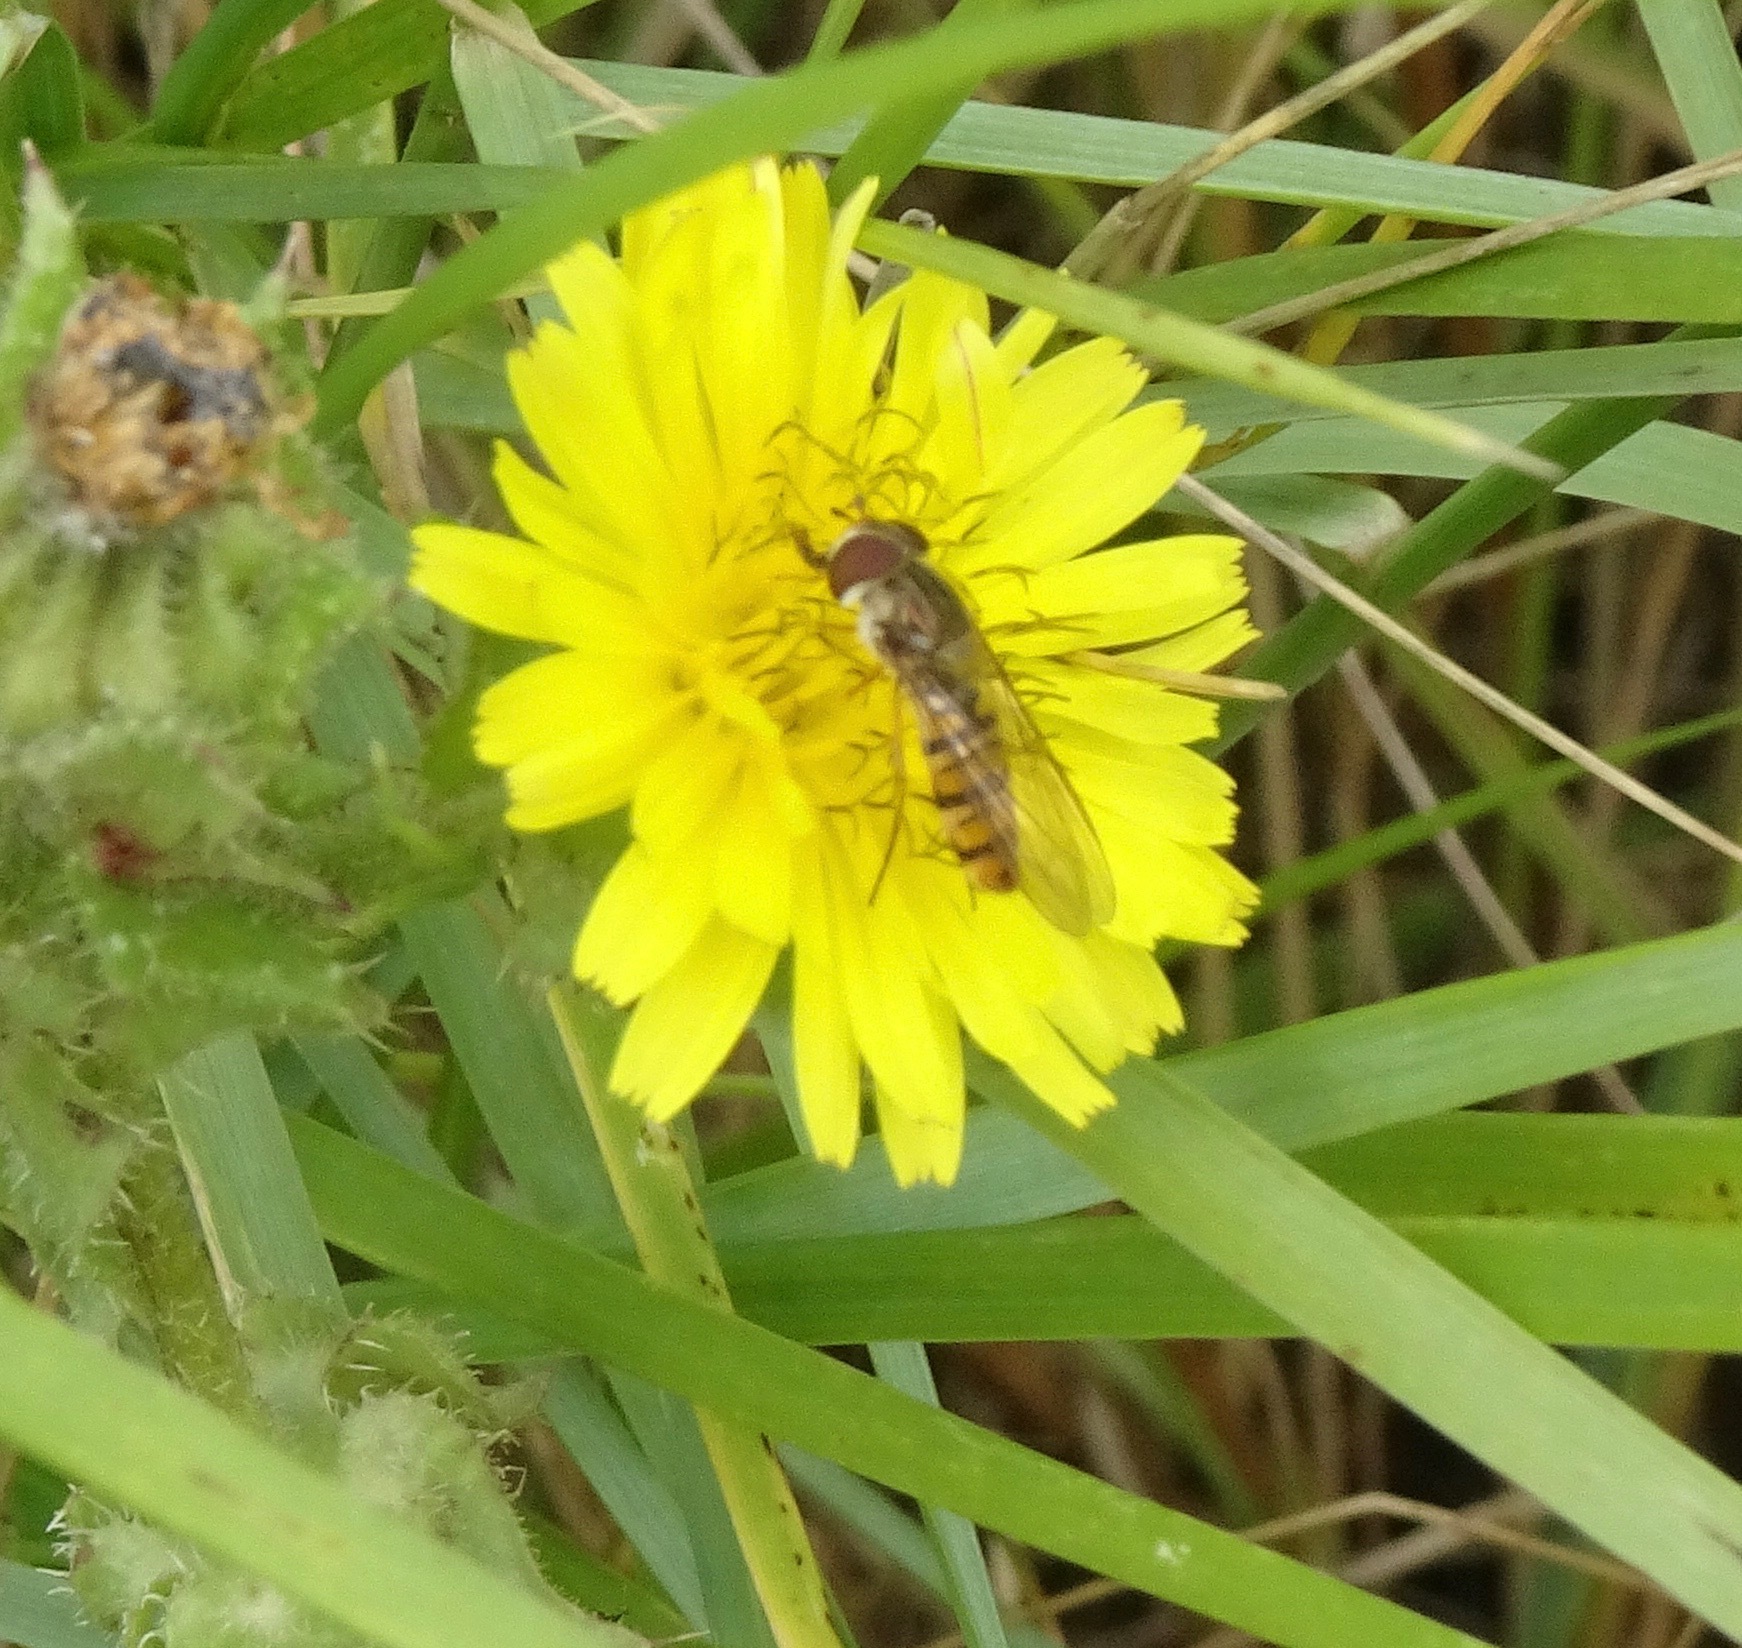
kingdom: Animalia
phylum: Arthropoda
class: Insecta
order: Diptera
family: Syrphidae
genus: Episyrphus
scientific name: Episyrphus balteatus
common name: Marmalade hoverfly
